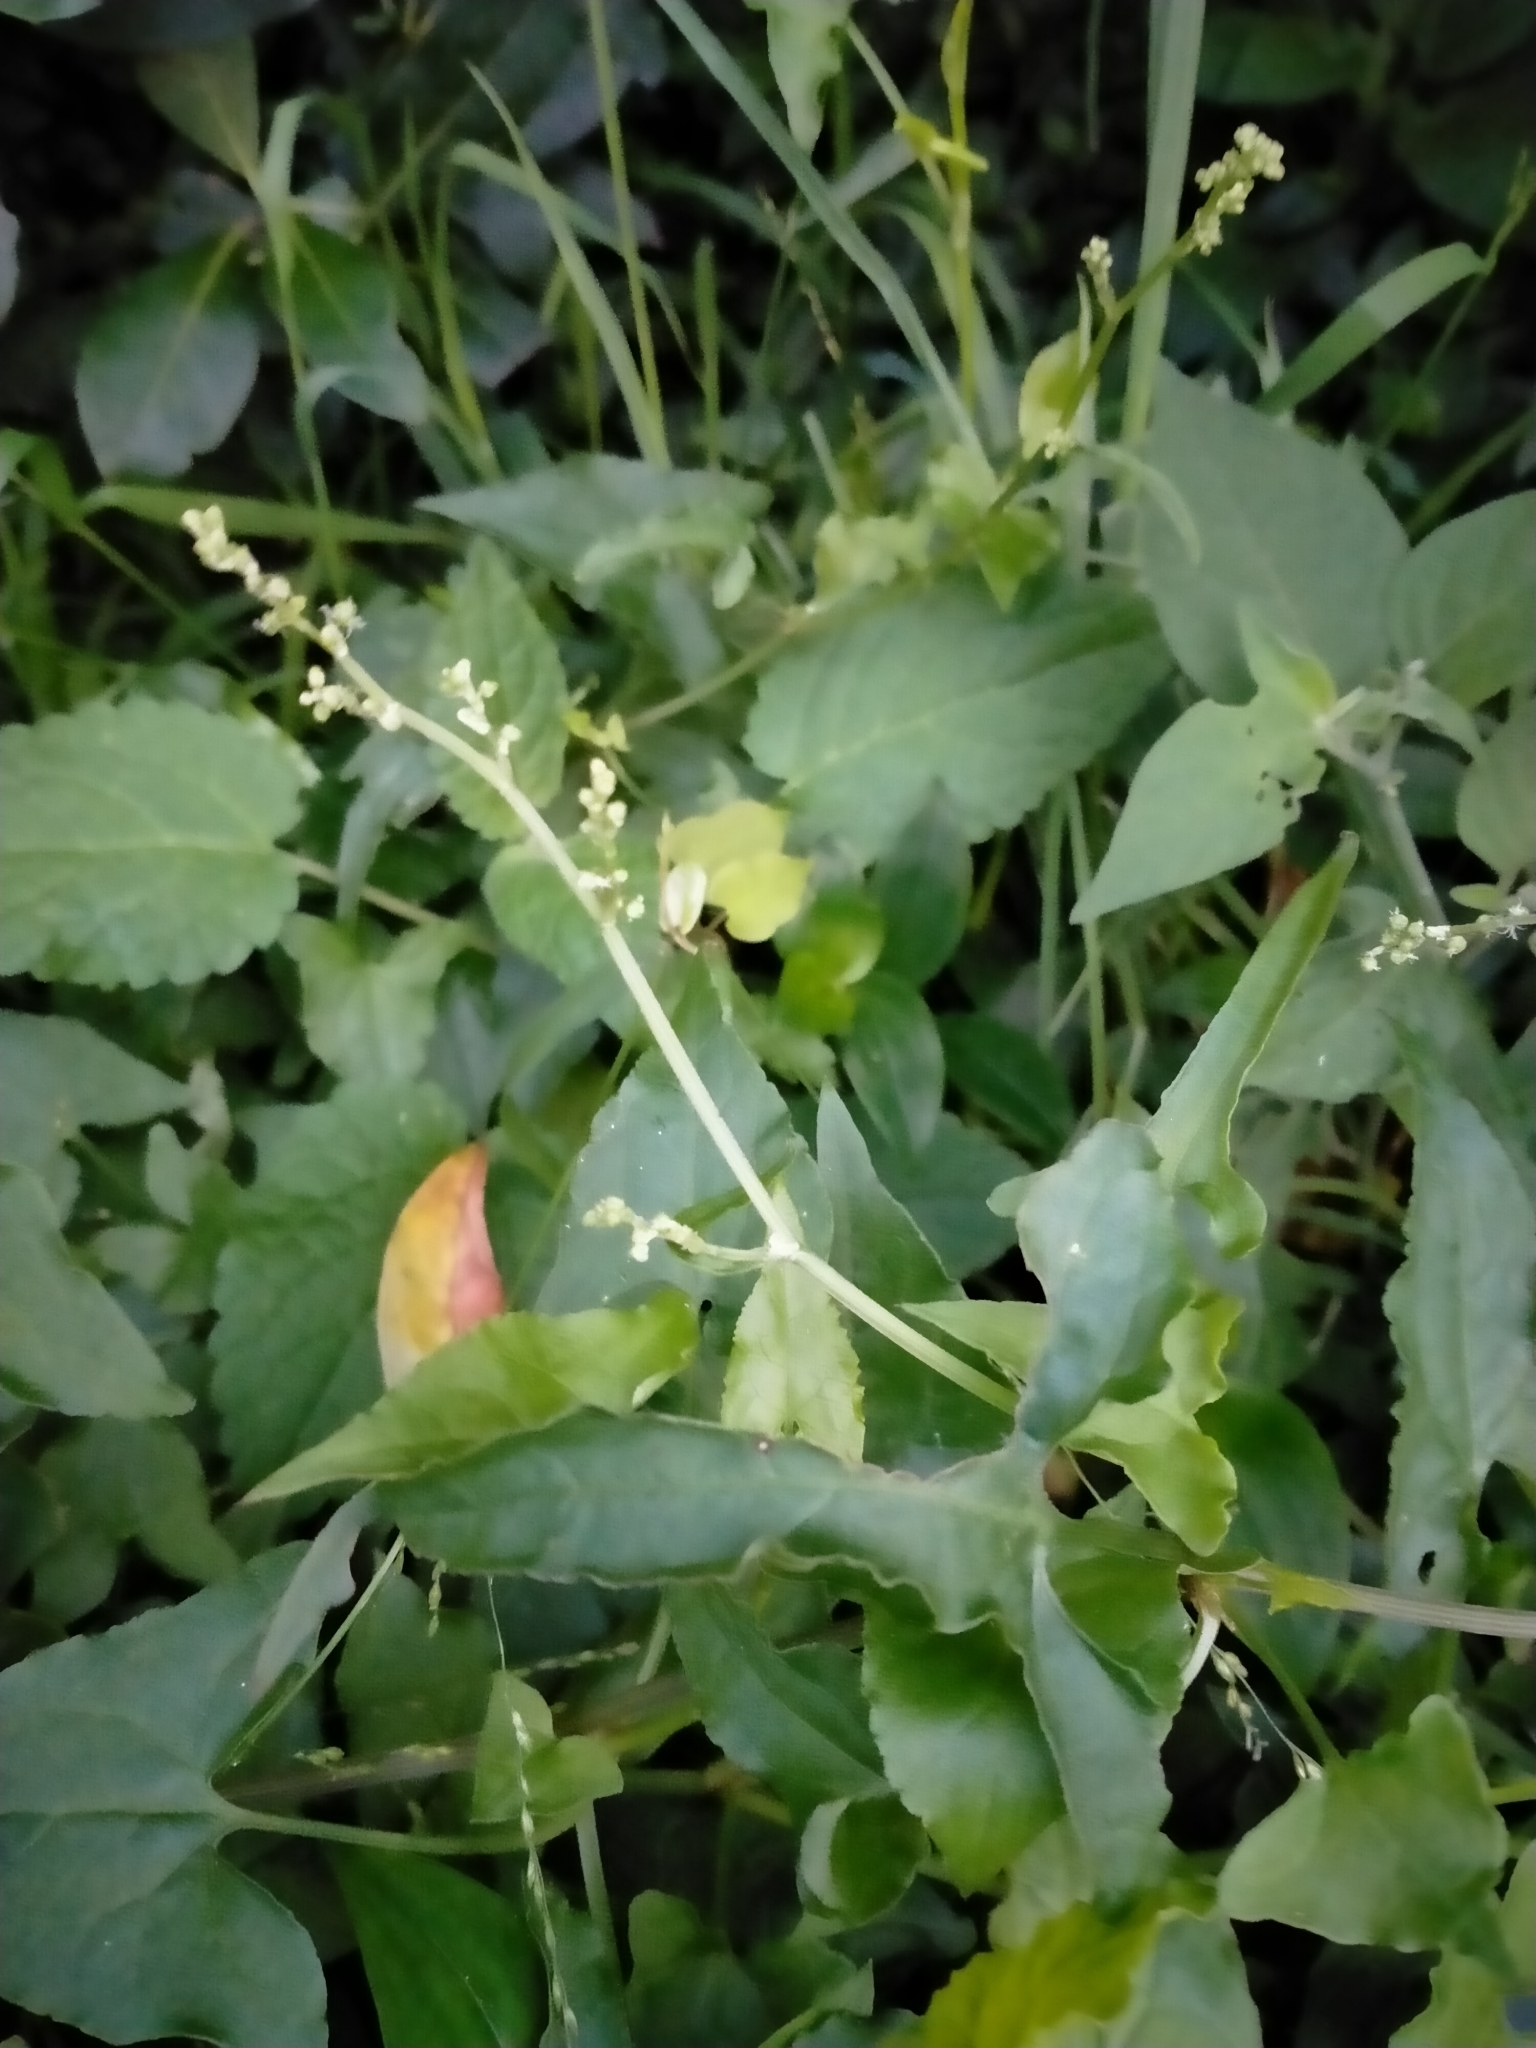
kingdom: Plantae
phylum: Tracheophyta
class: Magnoliopsida
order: Caryophyllales
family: Polygonaceae
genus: Rumex
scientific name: Rumex sagittatus
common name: Climbing dock
